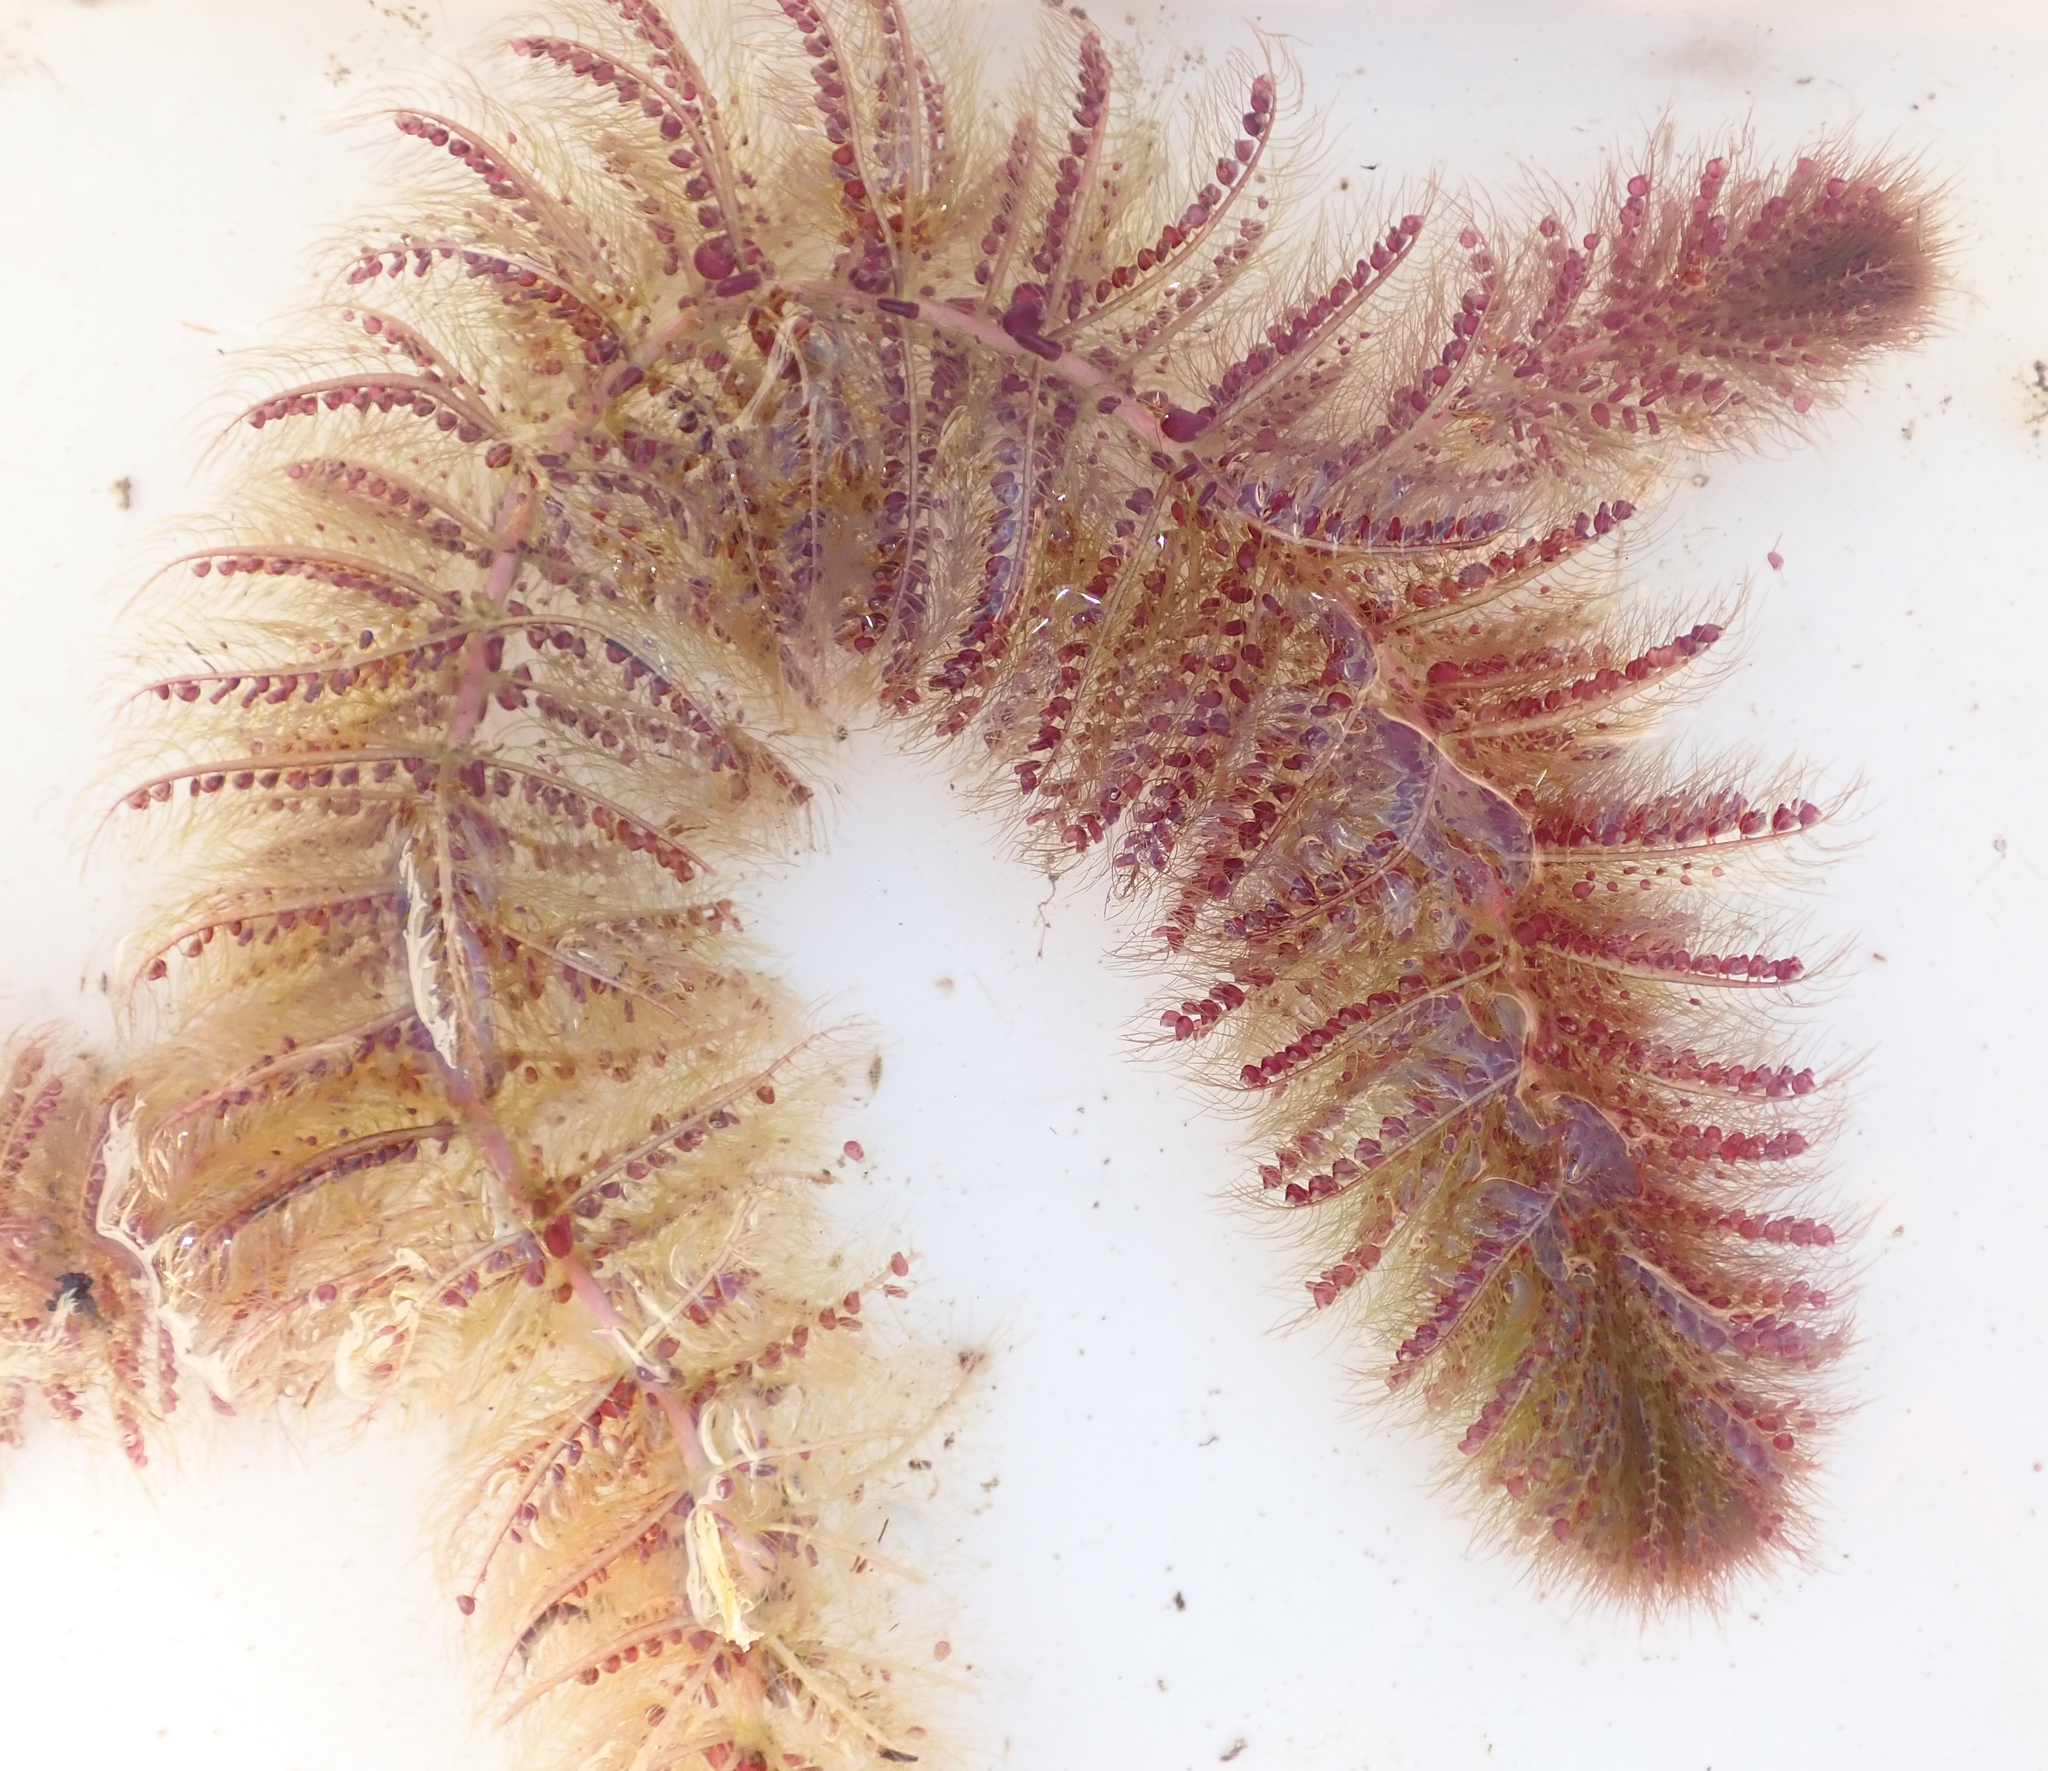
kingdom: Plantae
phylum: Tracheophyta
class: Magnoliopsida
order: Lamiales
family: Lentibulariaceae
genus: Utricularia
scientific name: Utricularia stellaris
